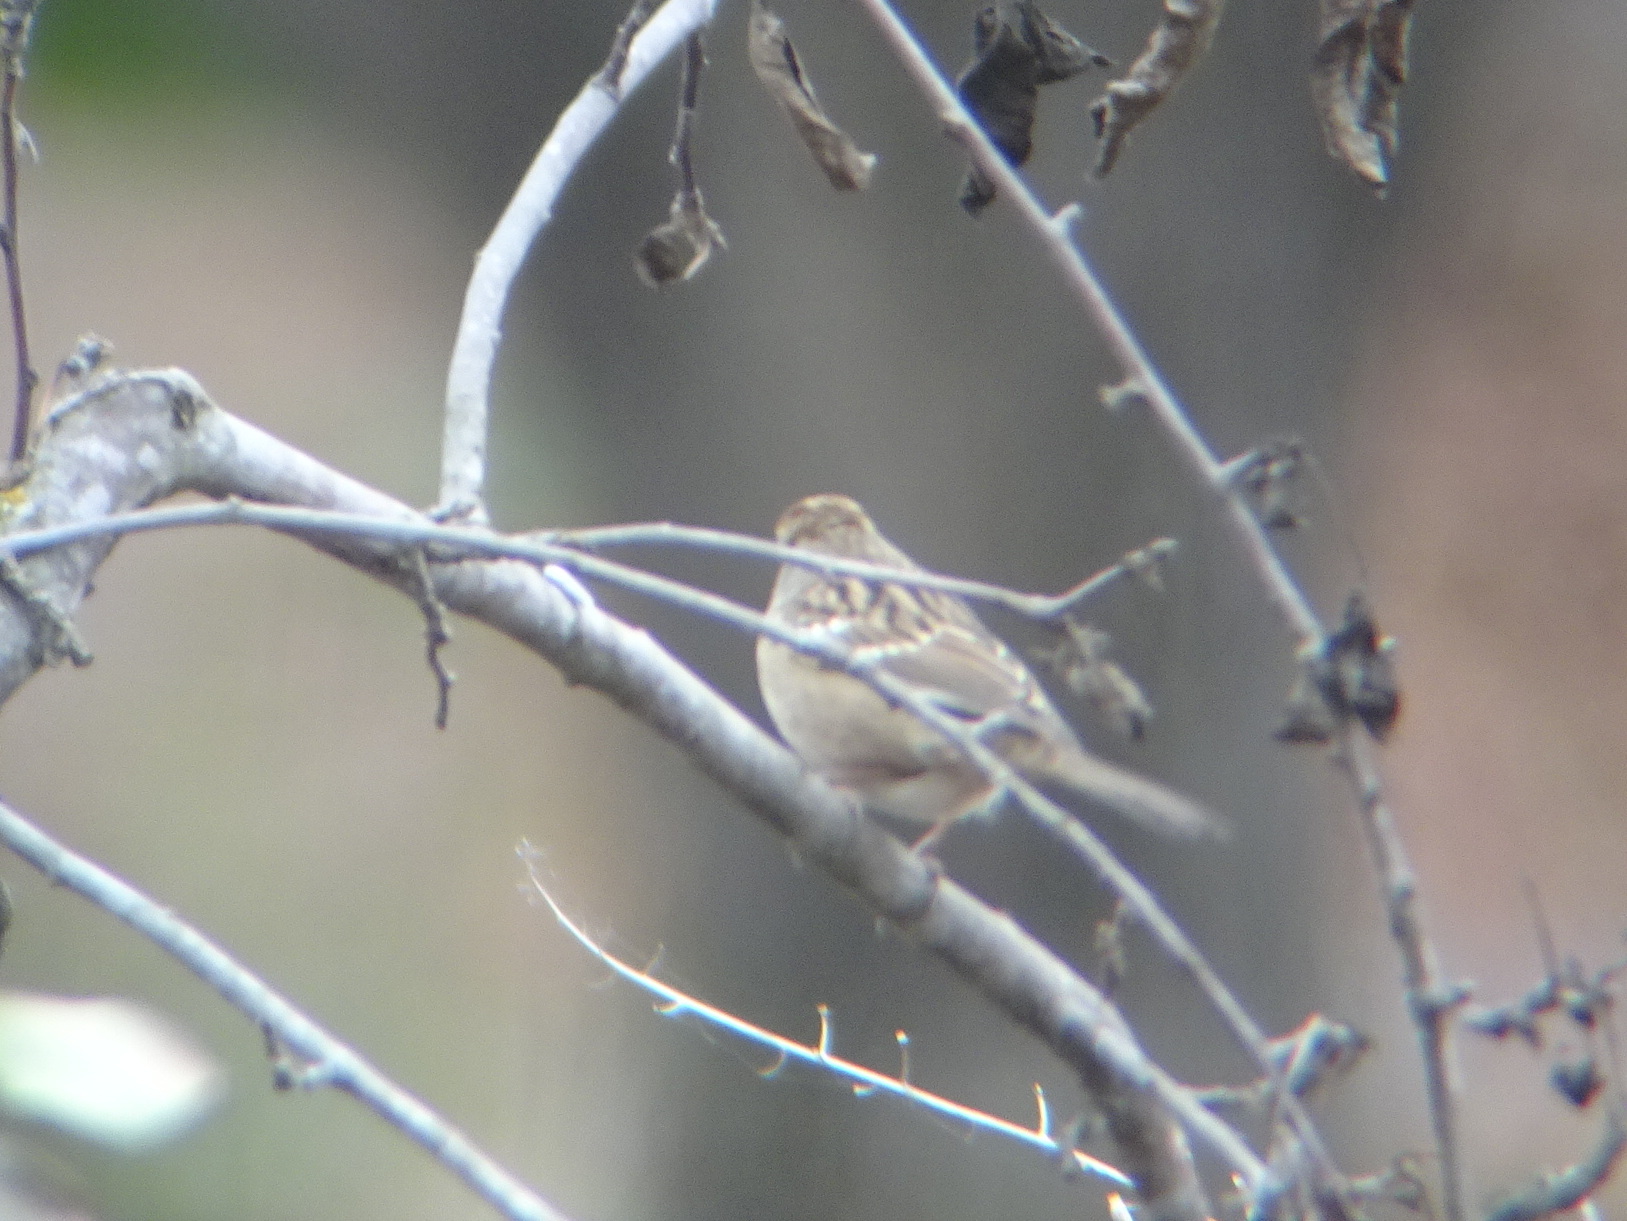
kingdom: Animalia
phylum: Chordata
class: Aves
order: Passeriformes
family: Passerellidae
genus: Zonotrichia
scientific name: Zonotrichia leucophrys
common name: White-crowned sparrow
